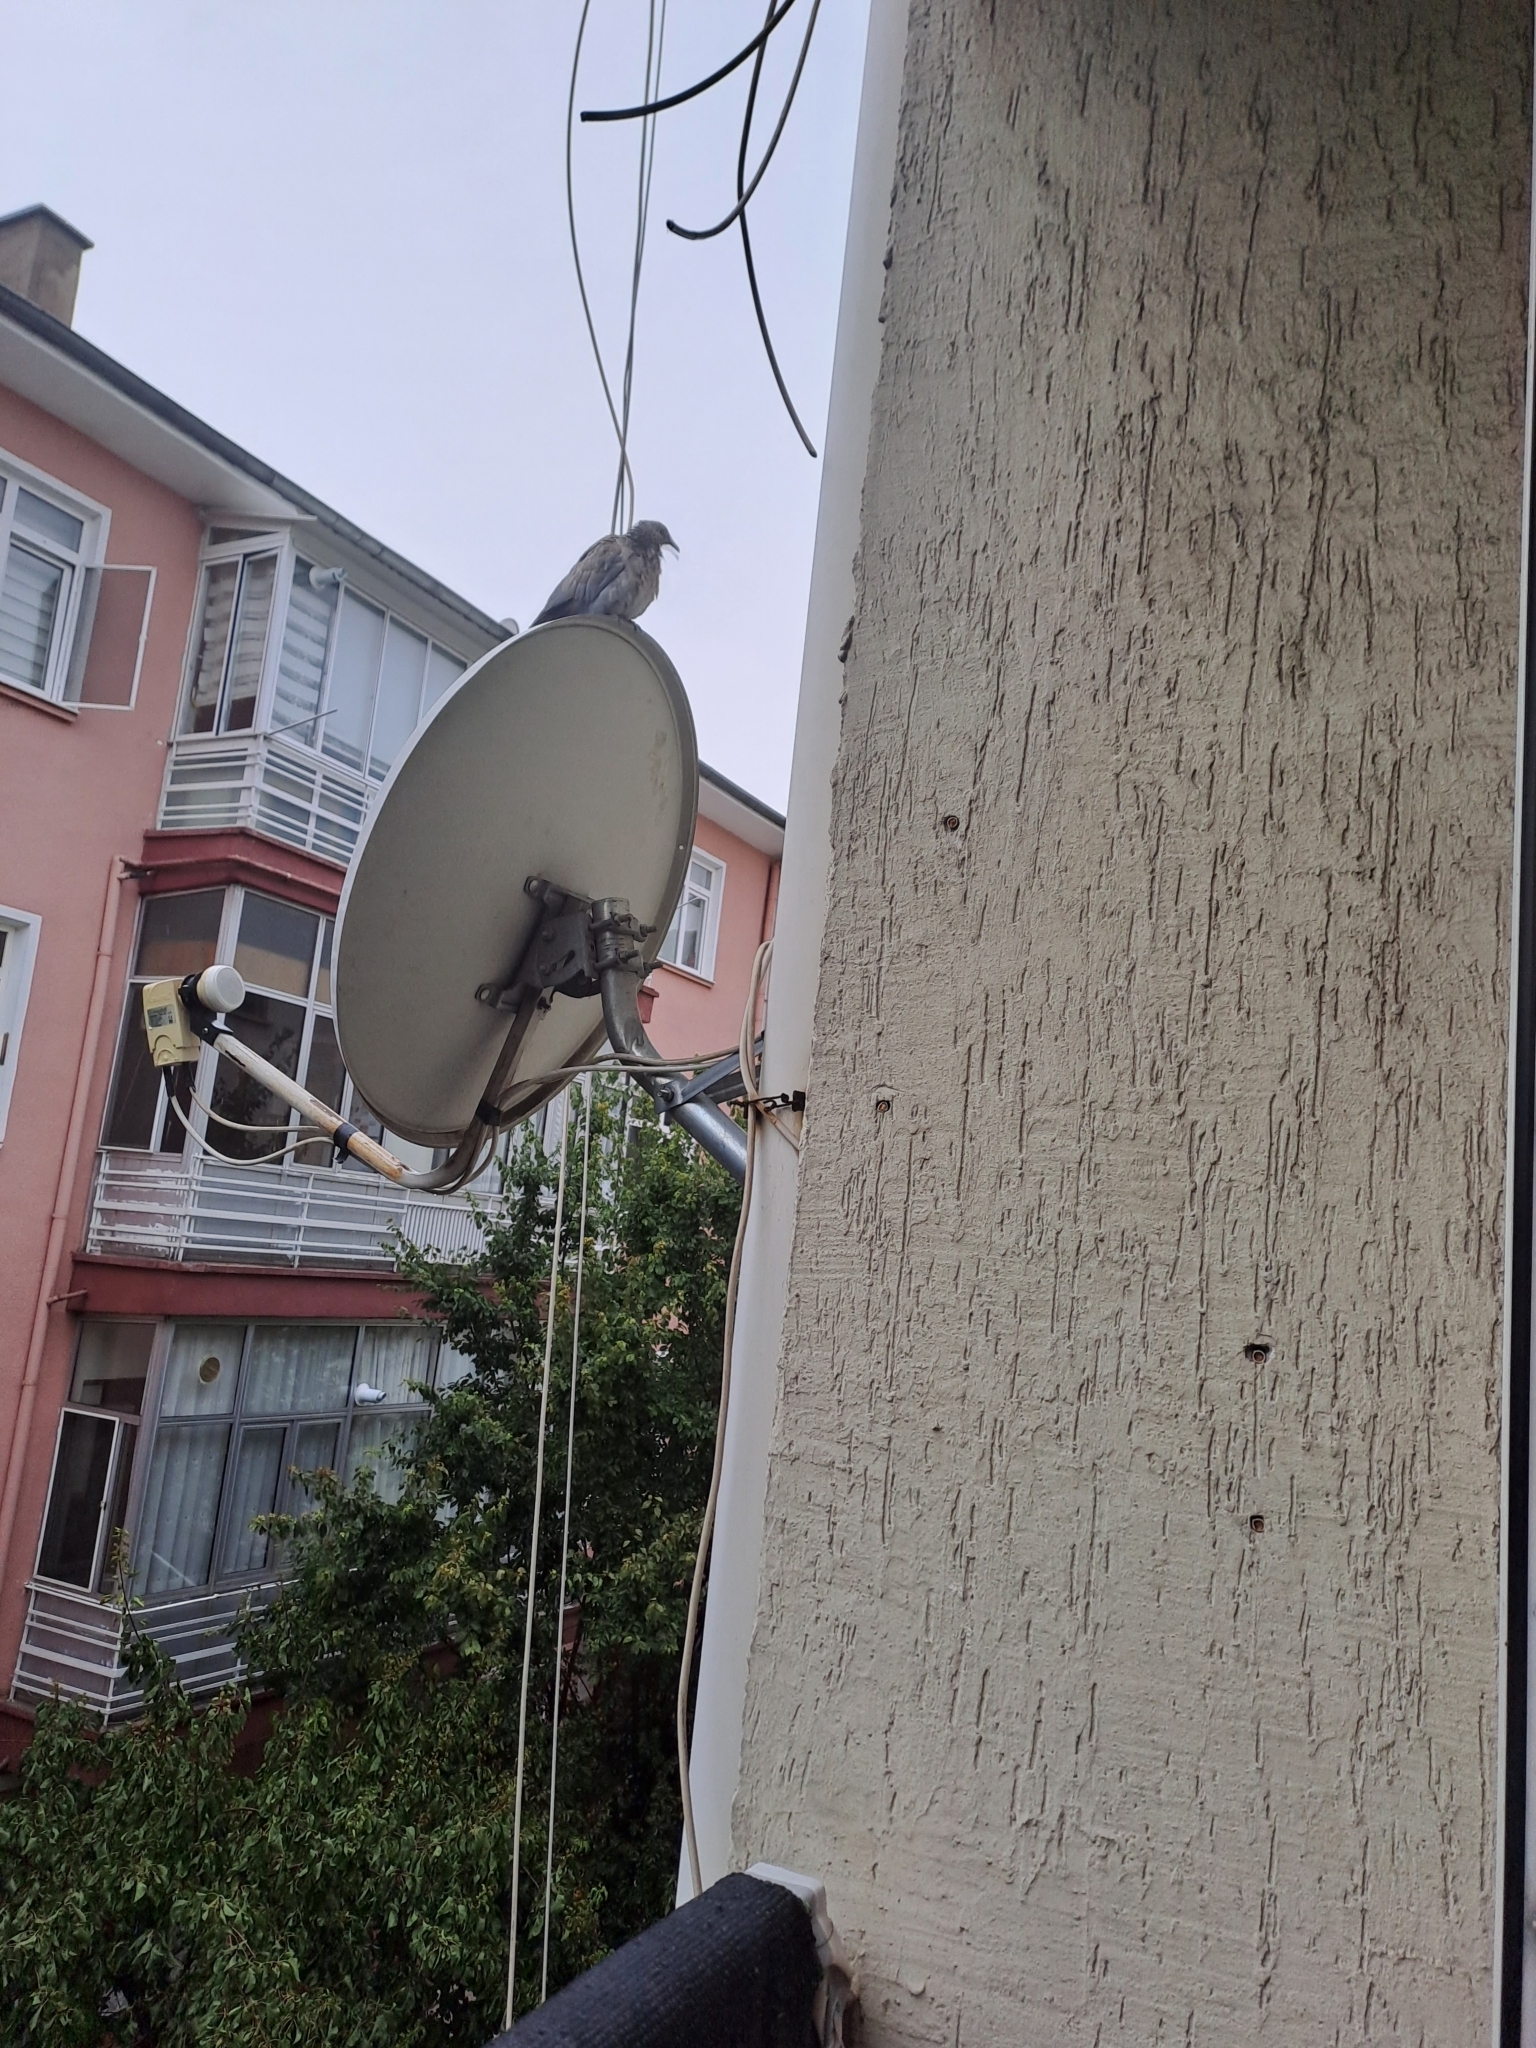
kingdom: Animalia
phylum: Chordata
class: Aves
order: Columbiformes
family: Columbidae
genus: Spilopelia
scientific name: Spilopelia senegalensis
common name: Laughing dove
